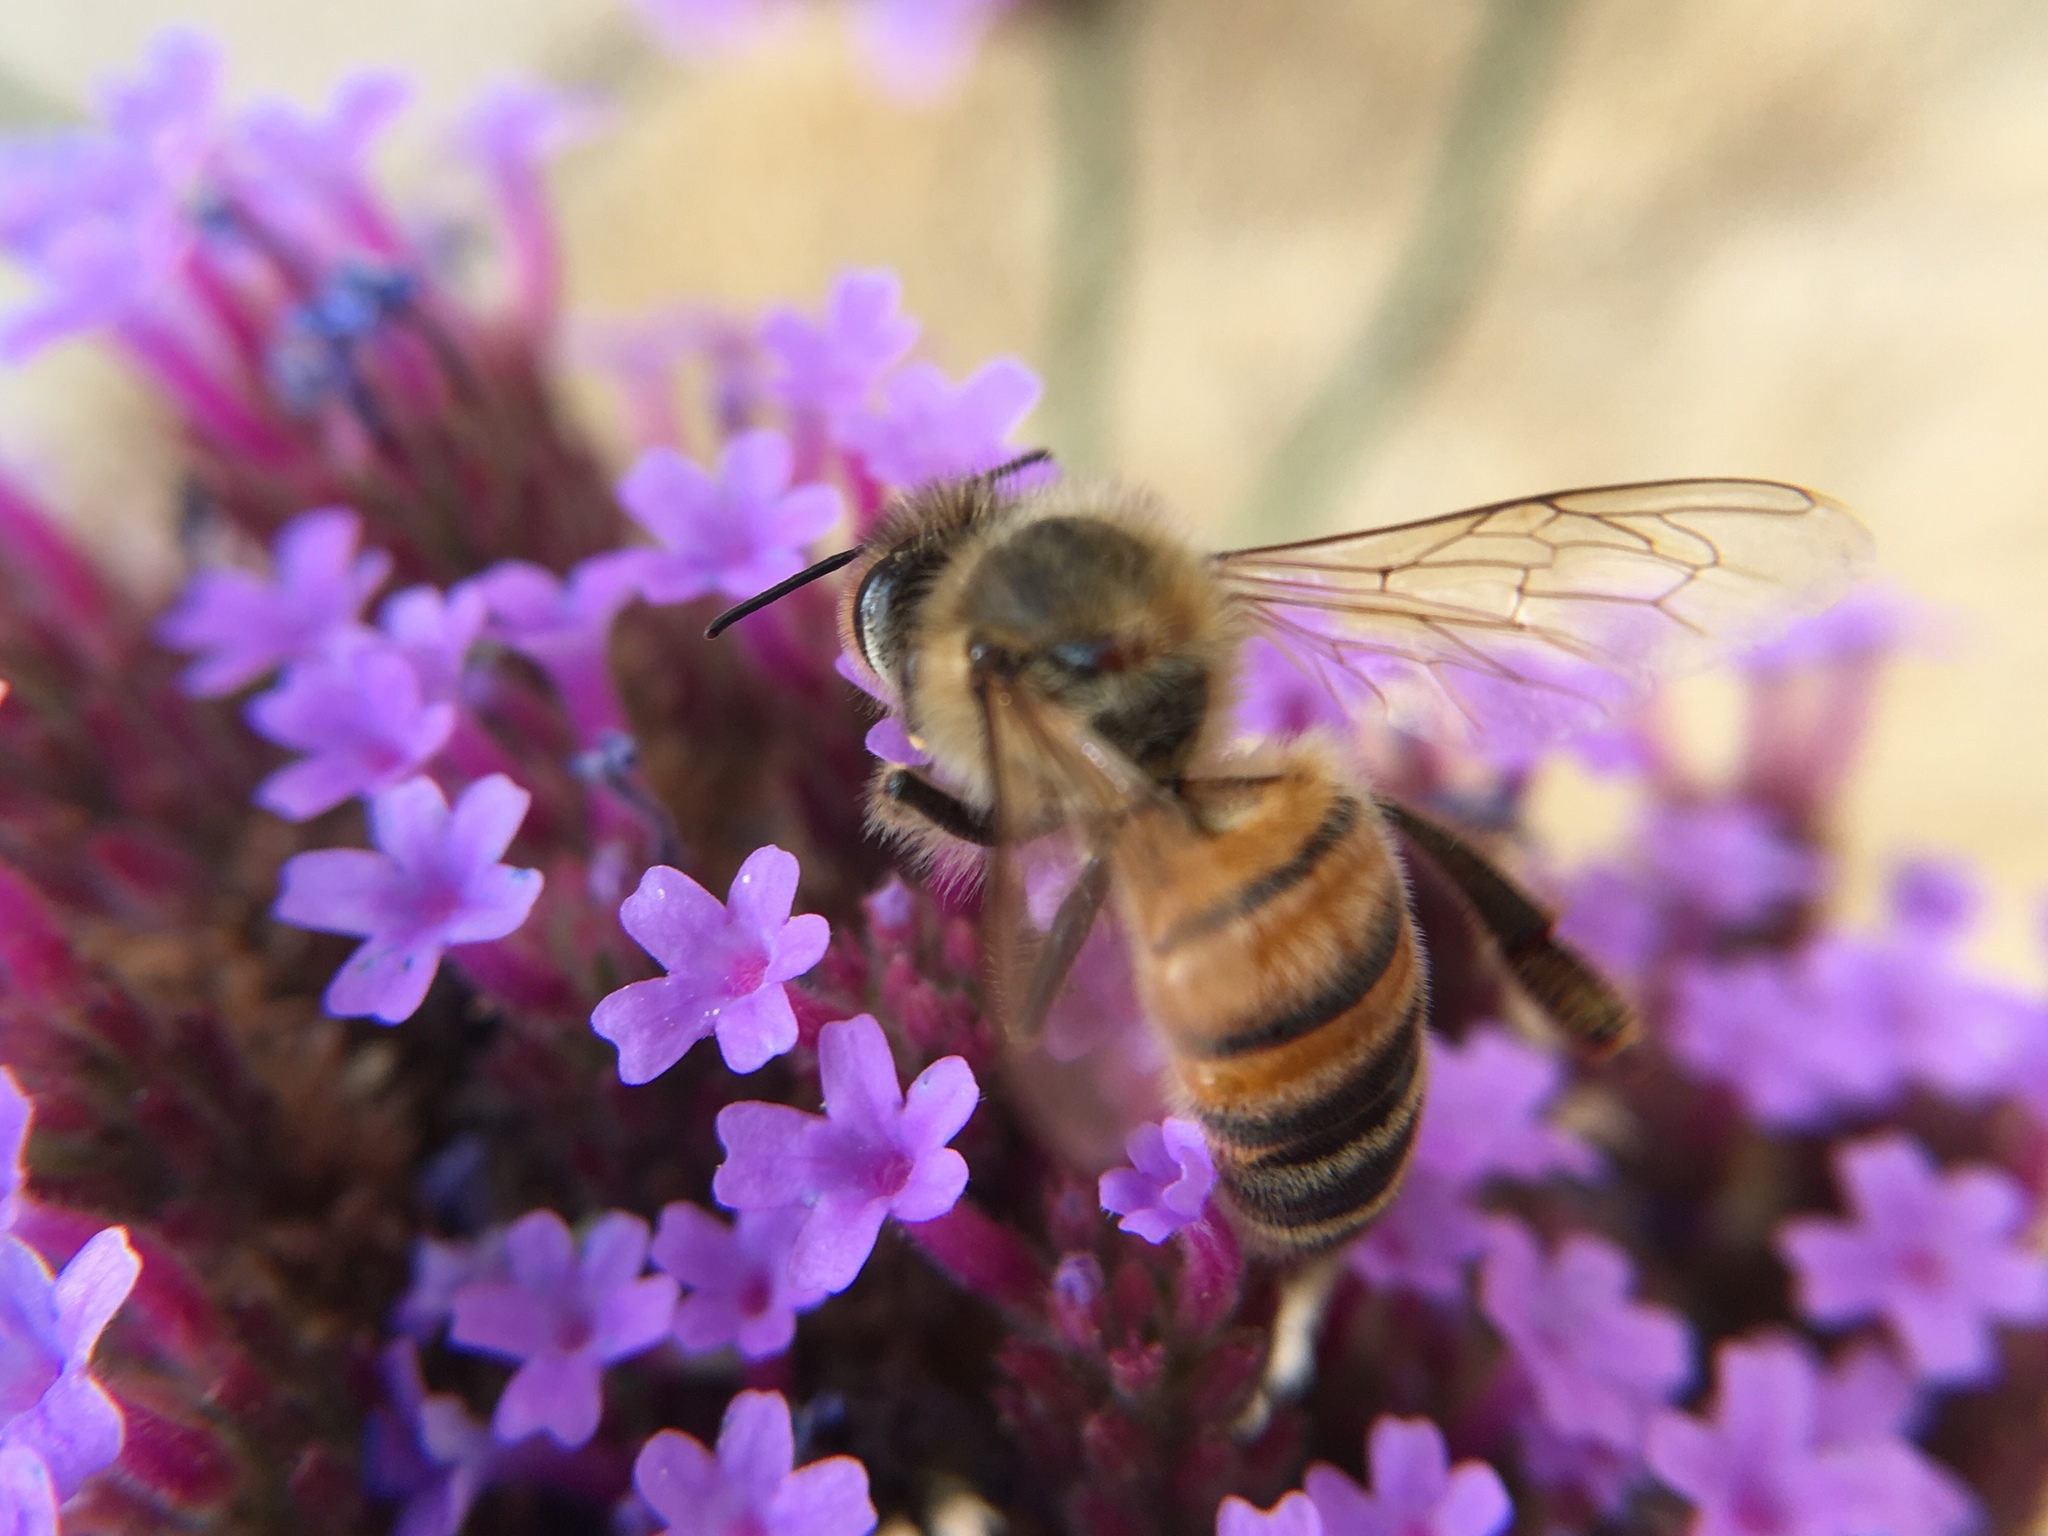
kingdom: Animalia
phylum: Arthropoda
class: Insecta
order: Hymenoptera
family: Apidae
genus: Apis
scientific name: Apis mellifera
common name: Honey bee
